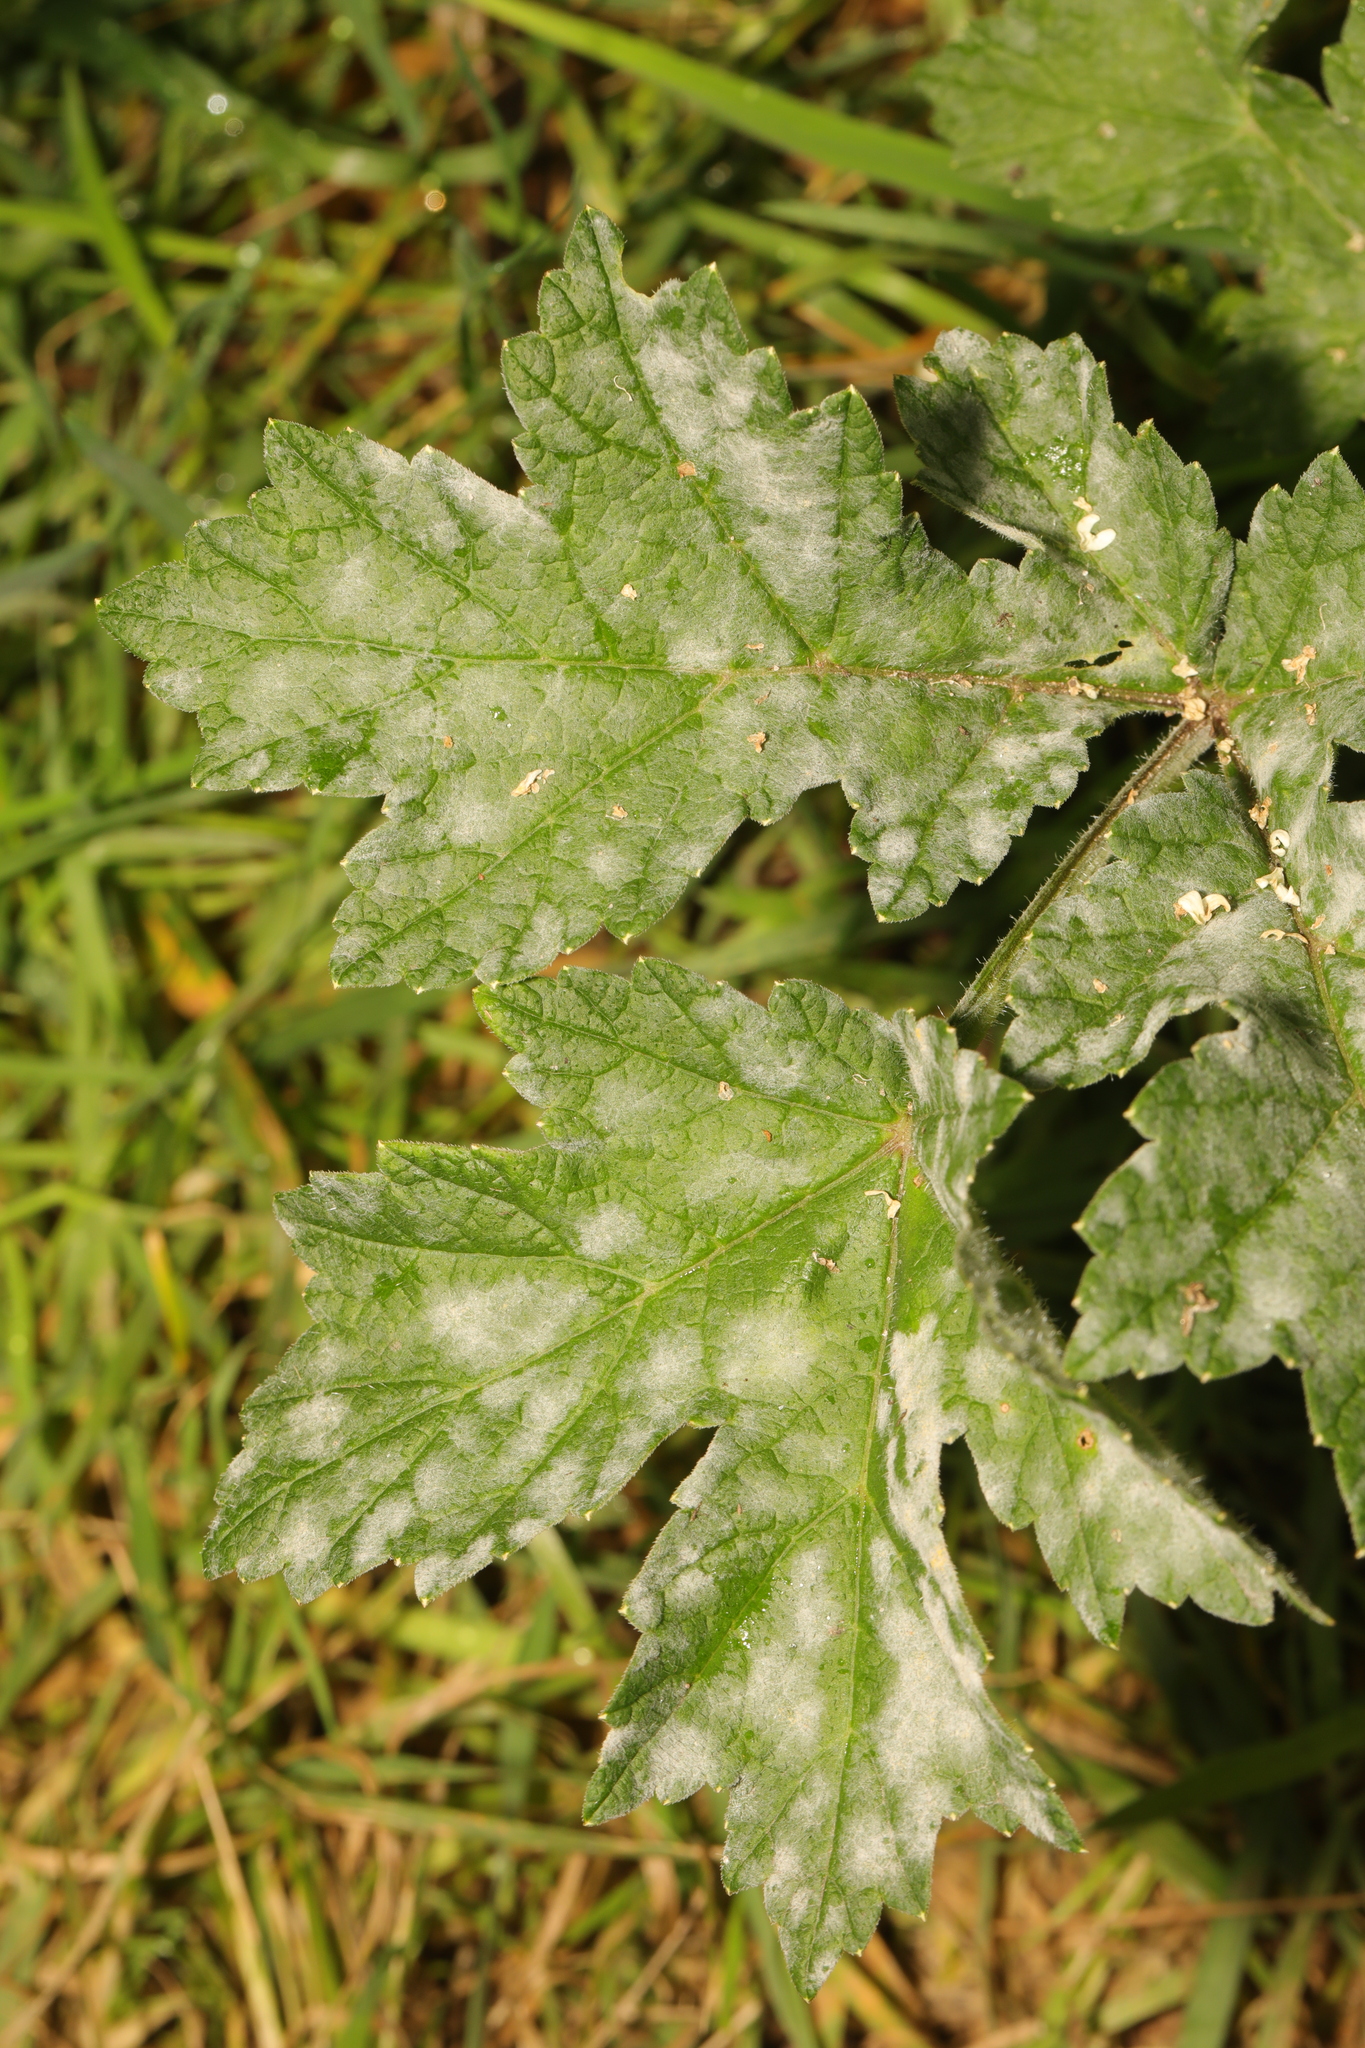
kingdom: Fungi
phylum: Ascomycota
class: Leotiomycetes
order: Helotiales
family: Erysiphaceae
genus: Erysiphe
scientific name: Erysiphe heraclei
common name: Umbellifer mildew
